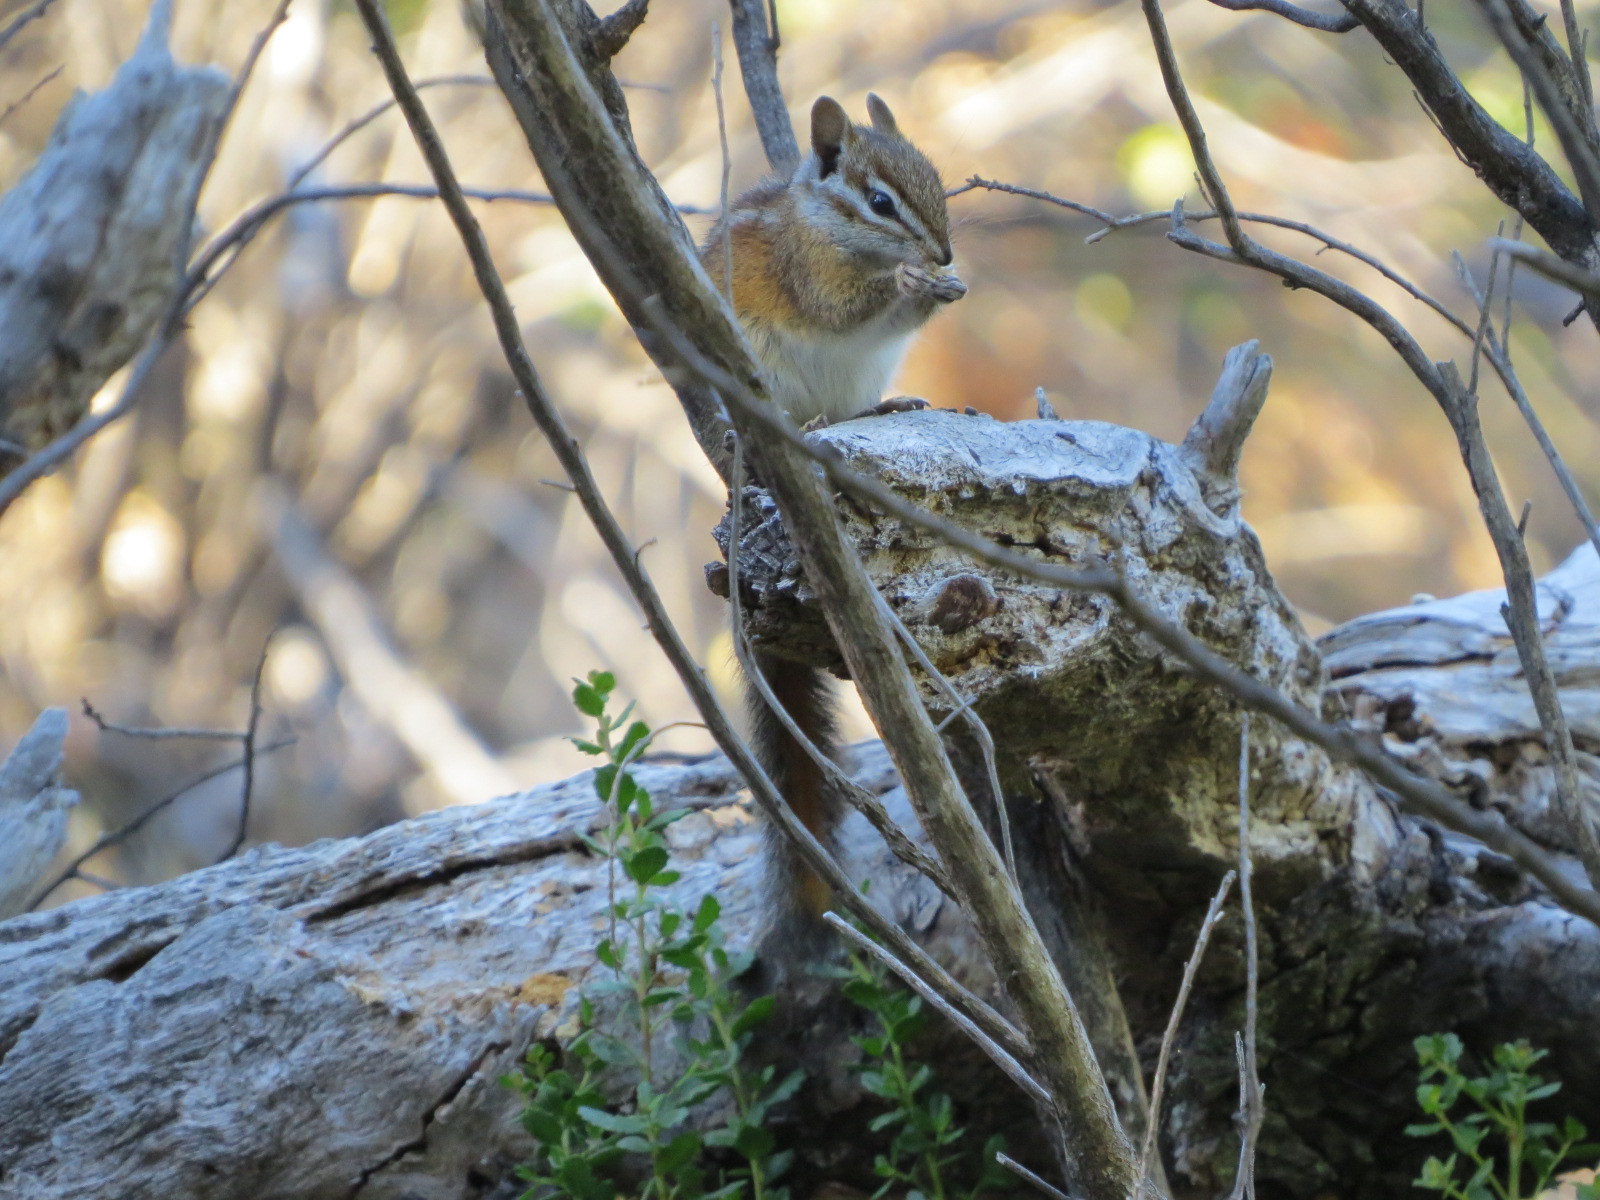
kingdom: Animalia
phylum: Chordata
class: Mammalia
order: Rodentia
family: Sciuridae
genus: Tamias
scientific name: Tamias merriami
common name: Merriam's chipmunk
